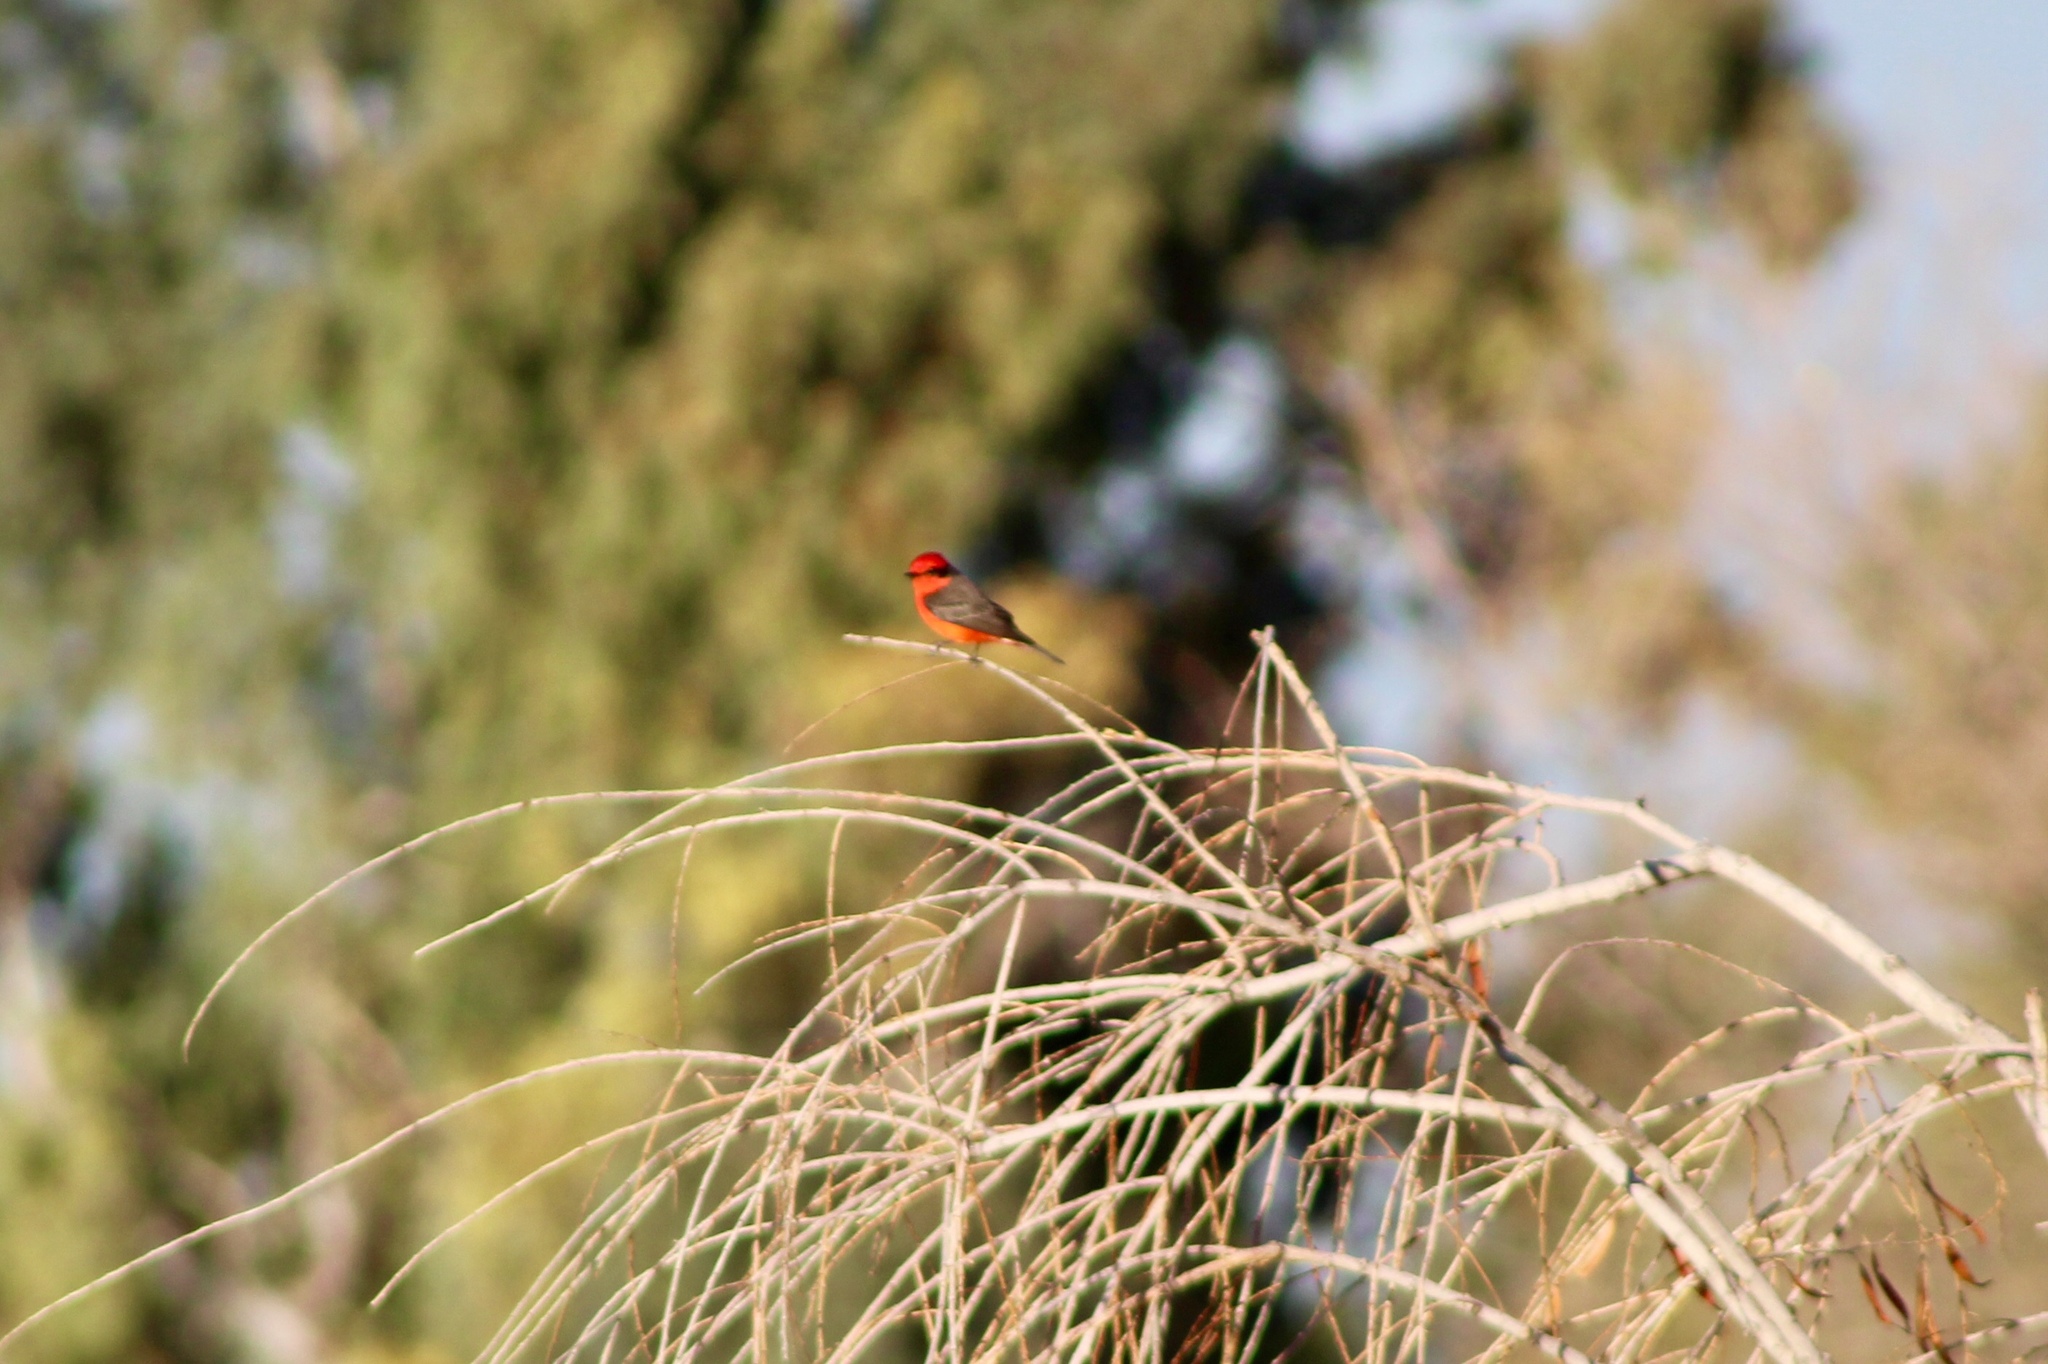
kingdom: Animalia
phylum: Chordata
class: Aves
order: Passeriformes
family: Tyrannidae
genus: Pyrocephalus
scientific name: Pyrocephalus rubinus
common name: Vermilion flycatcher
